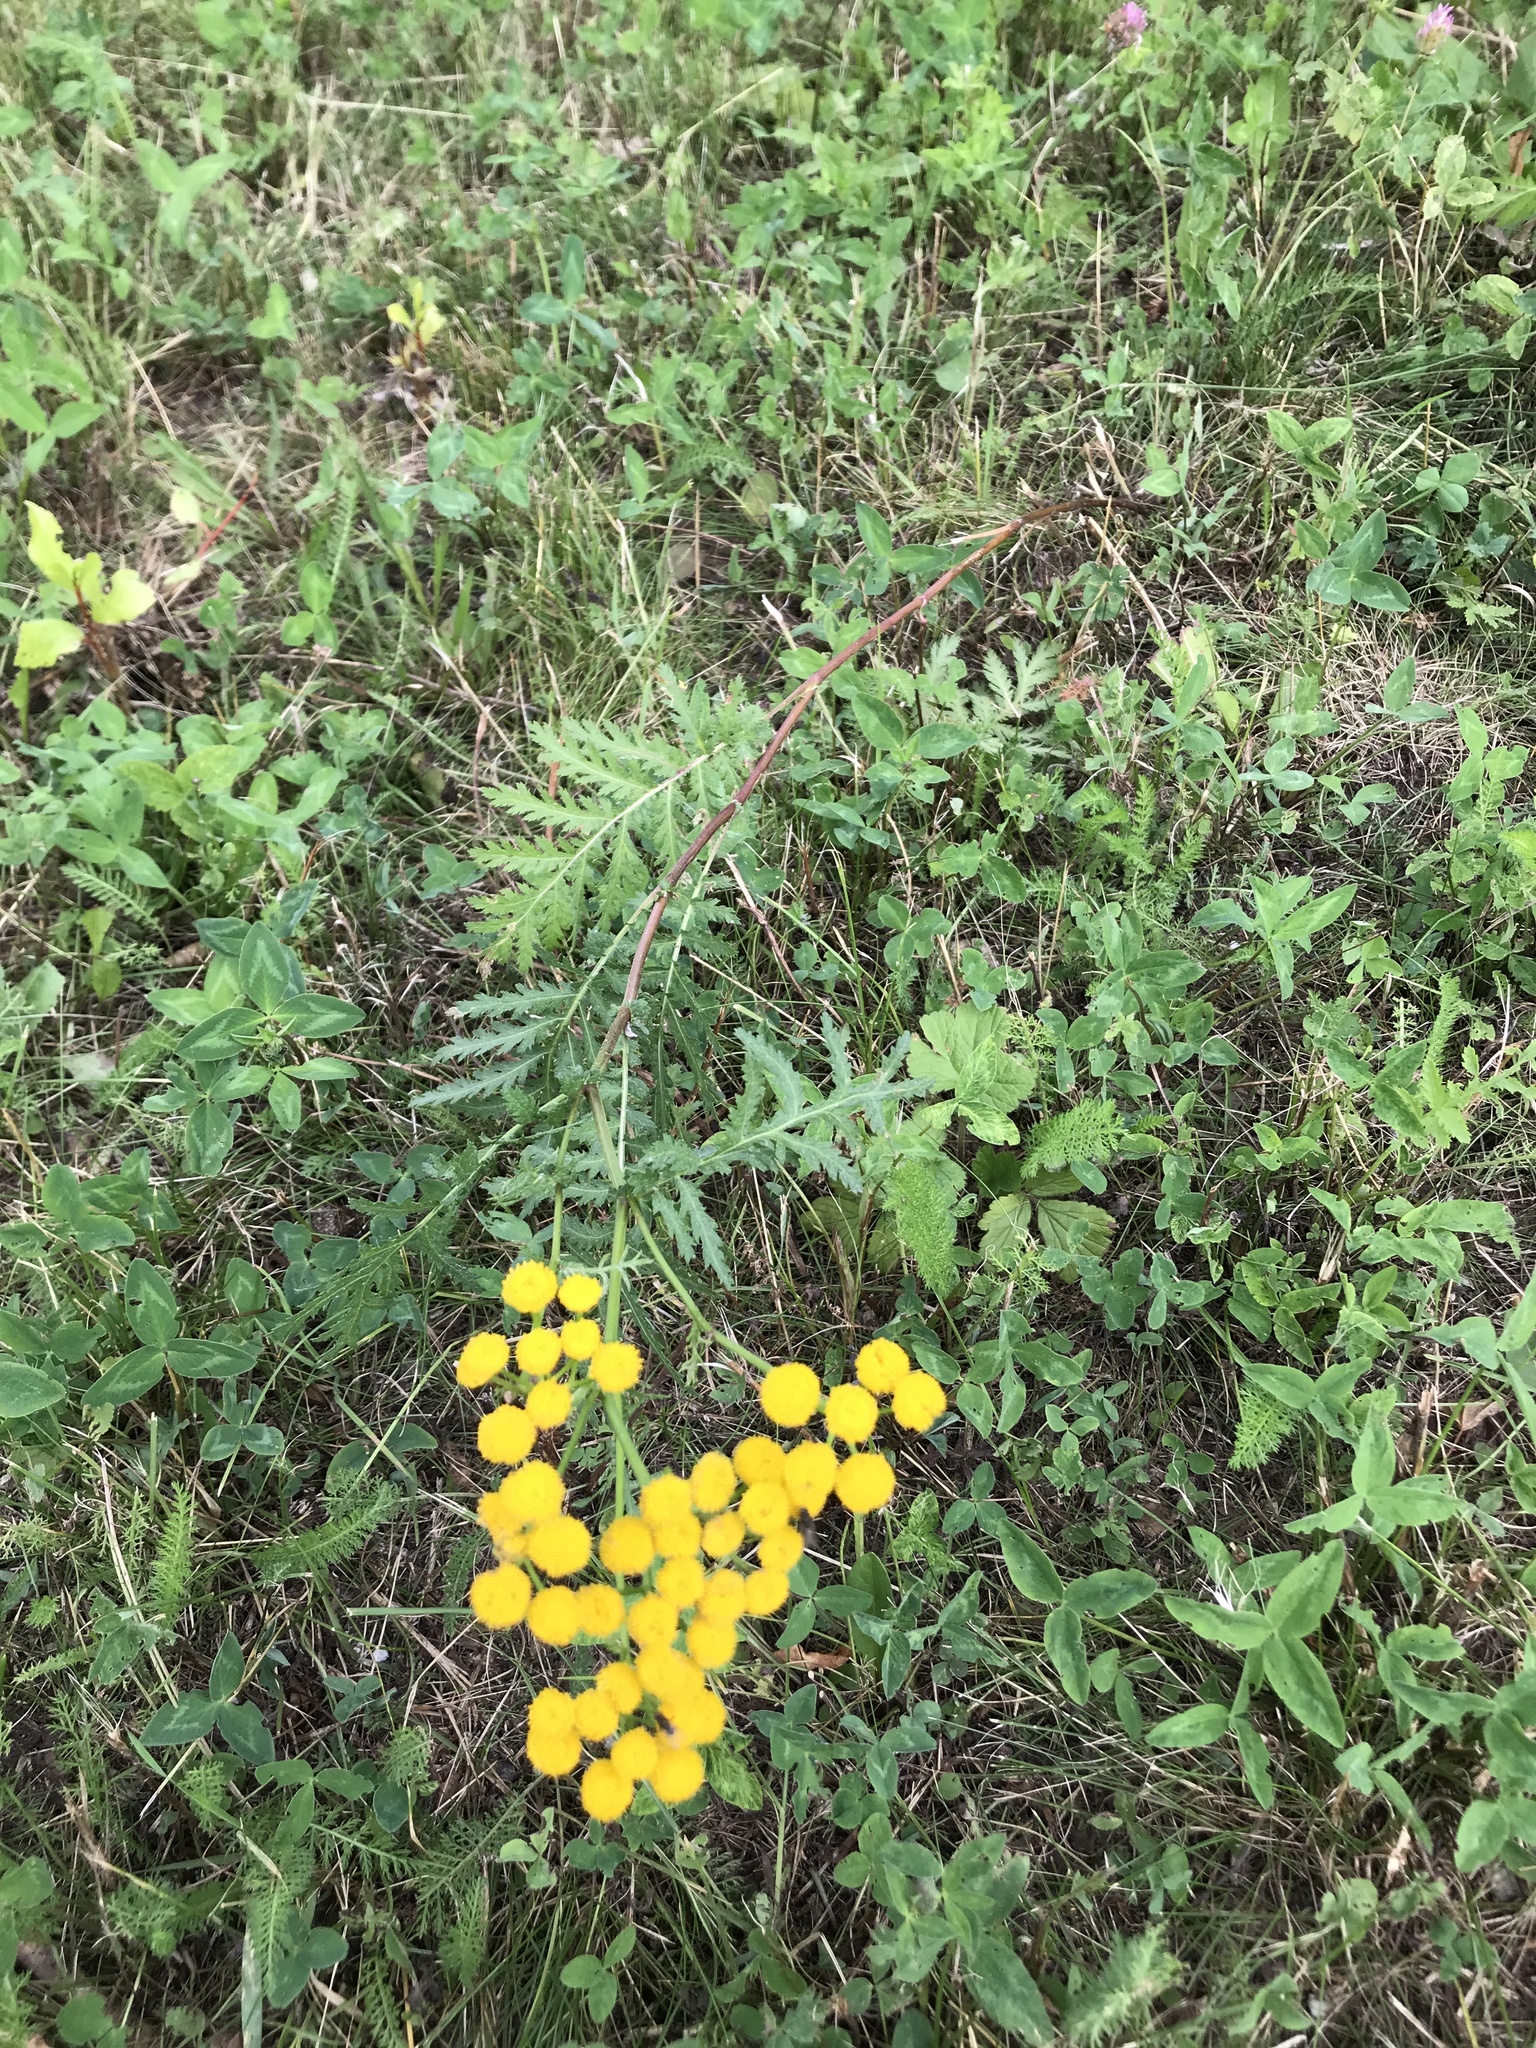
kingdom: Plantae
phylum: Tracheophyta
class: Magnoliopsida
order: Asterales
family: Asteraceae
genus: Tanacetum
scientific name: Tanacetum vulgare
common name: Common tansy
